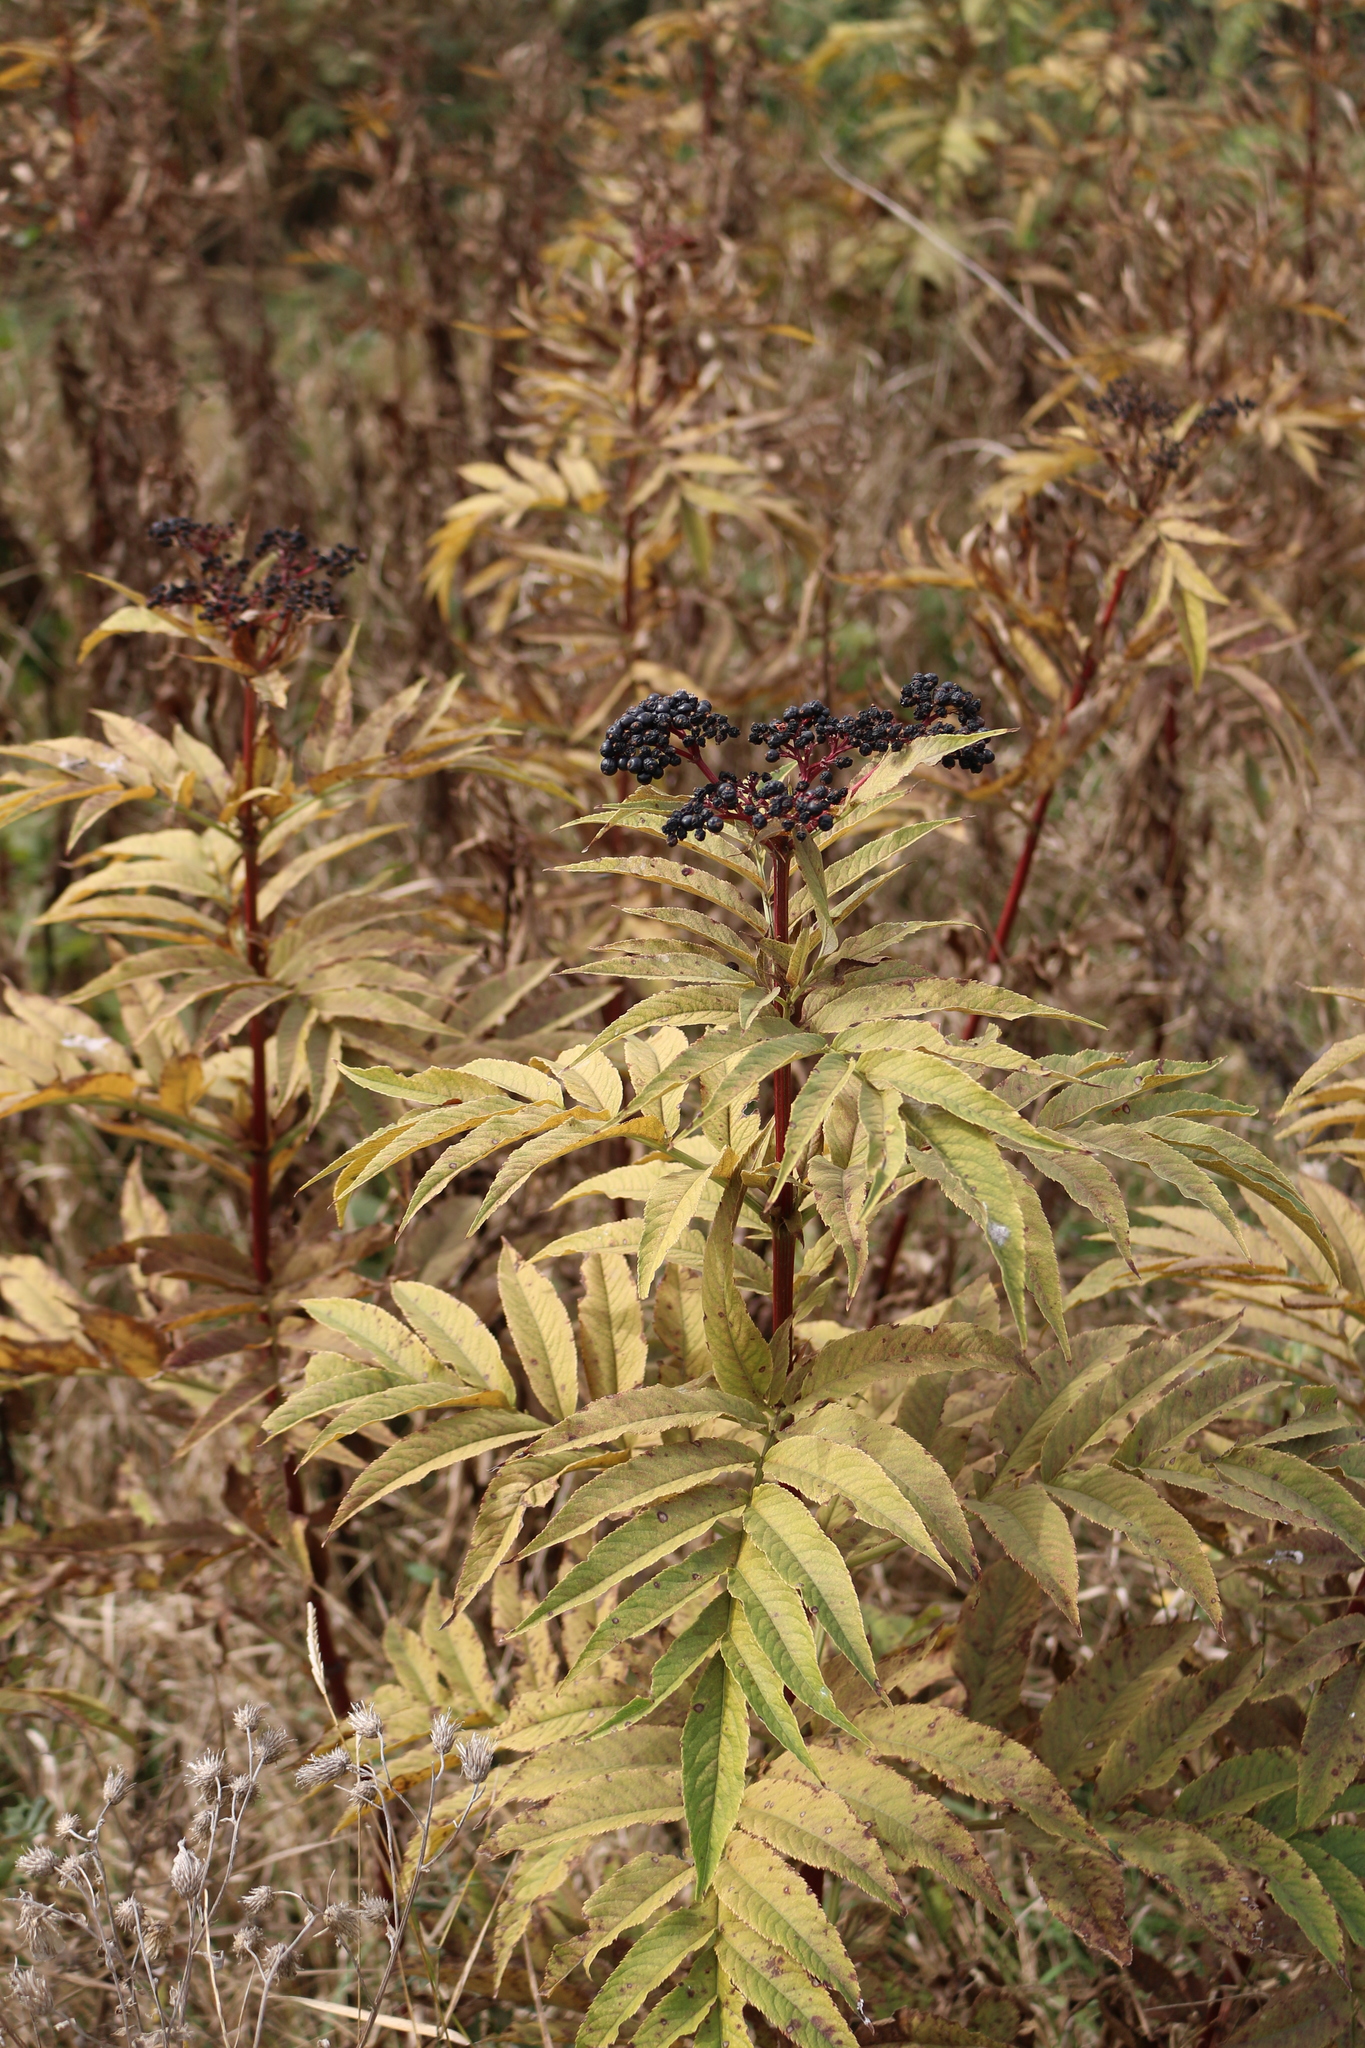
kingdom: Plantae
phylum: Tracheophyta
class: Magnoliopsida
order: Dipsacales
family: Viburnaceae
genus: Sambucus
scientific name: Sambucus ebulus
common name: Dwarf elder
